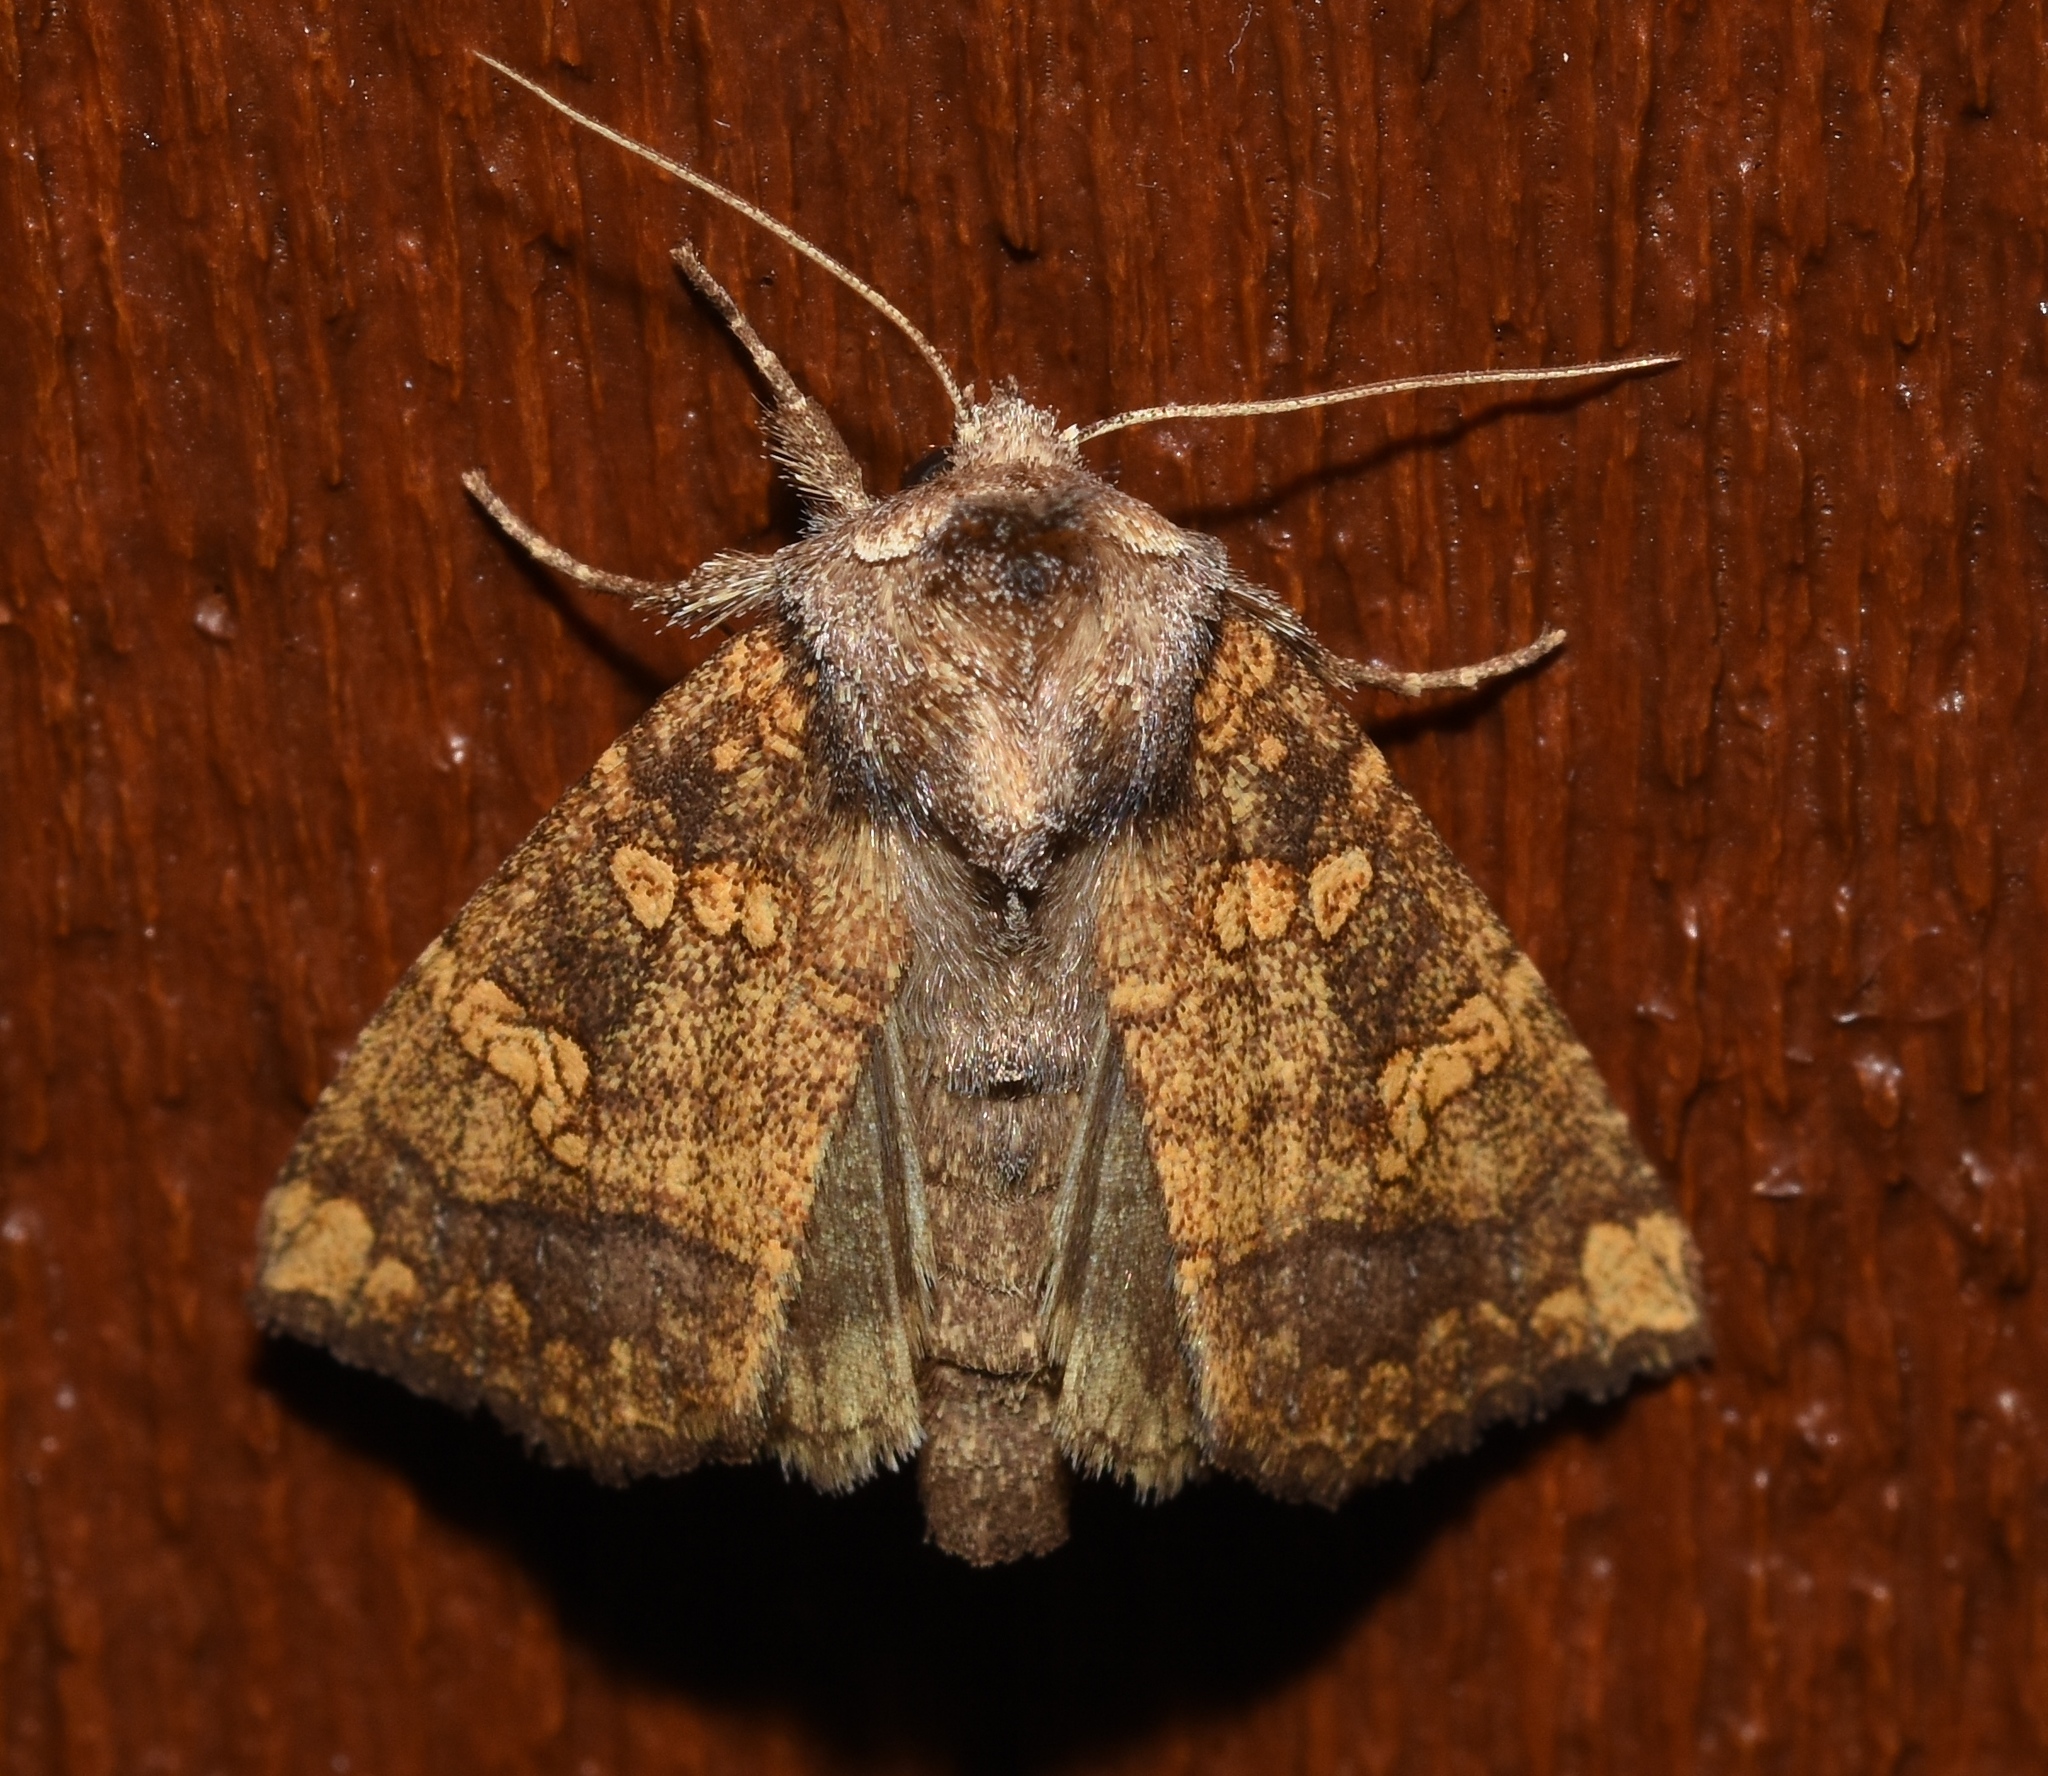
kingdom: Animalia
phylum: Arthropoda
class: Insecta
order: Lepidoptera
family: Noctuidae
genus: Papaipema
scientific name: Papaipema cataphracta
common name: Burdock borer
